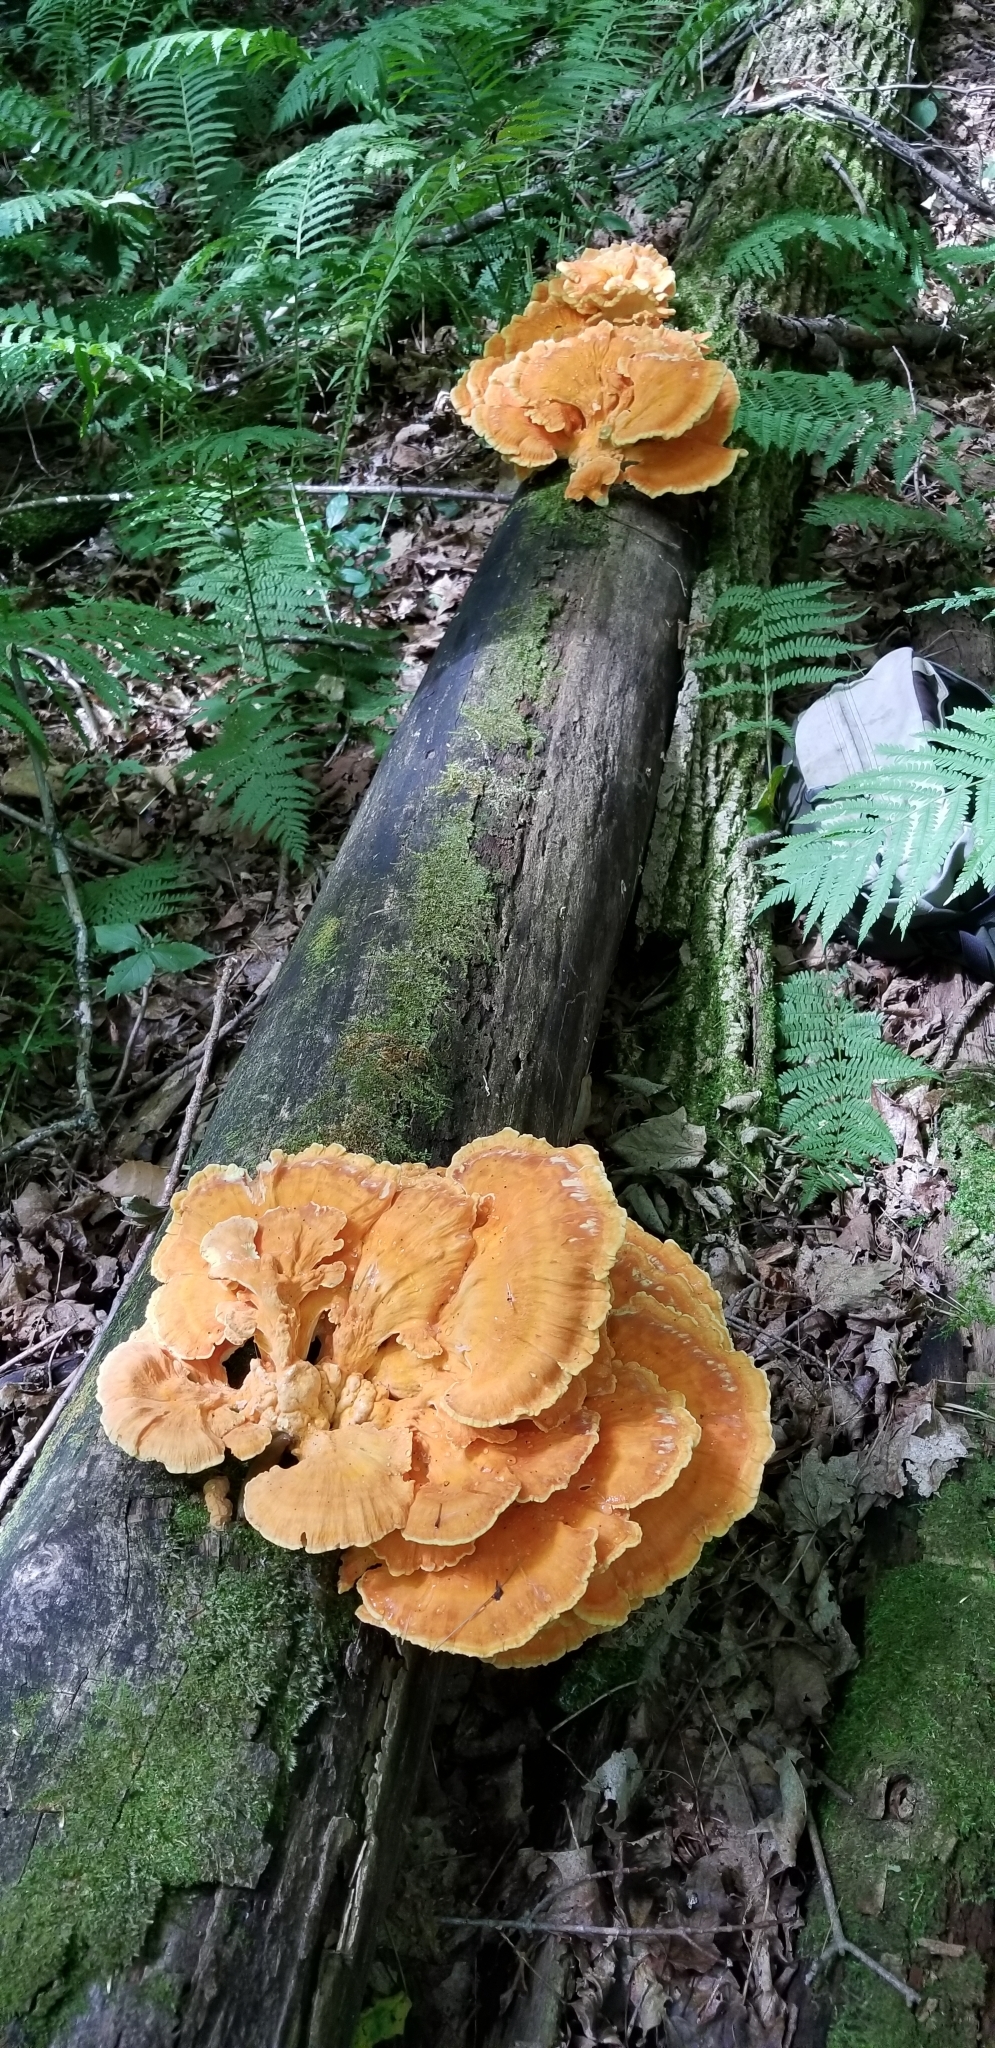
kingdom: Fungi
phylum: Basidiomycota
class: Agaricomycetes
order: Polyporales
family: Laetiporaceae
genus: Laetiporus
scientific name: Laetiporus sulphureus
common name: Chicken of the woods
